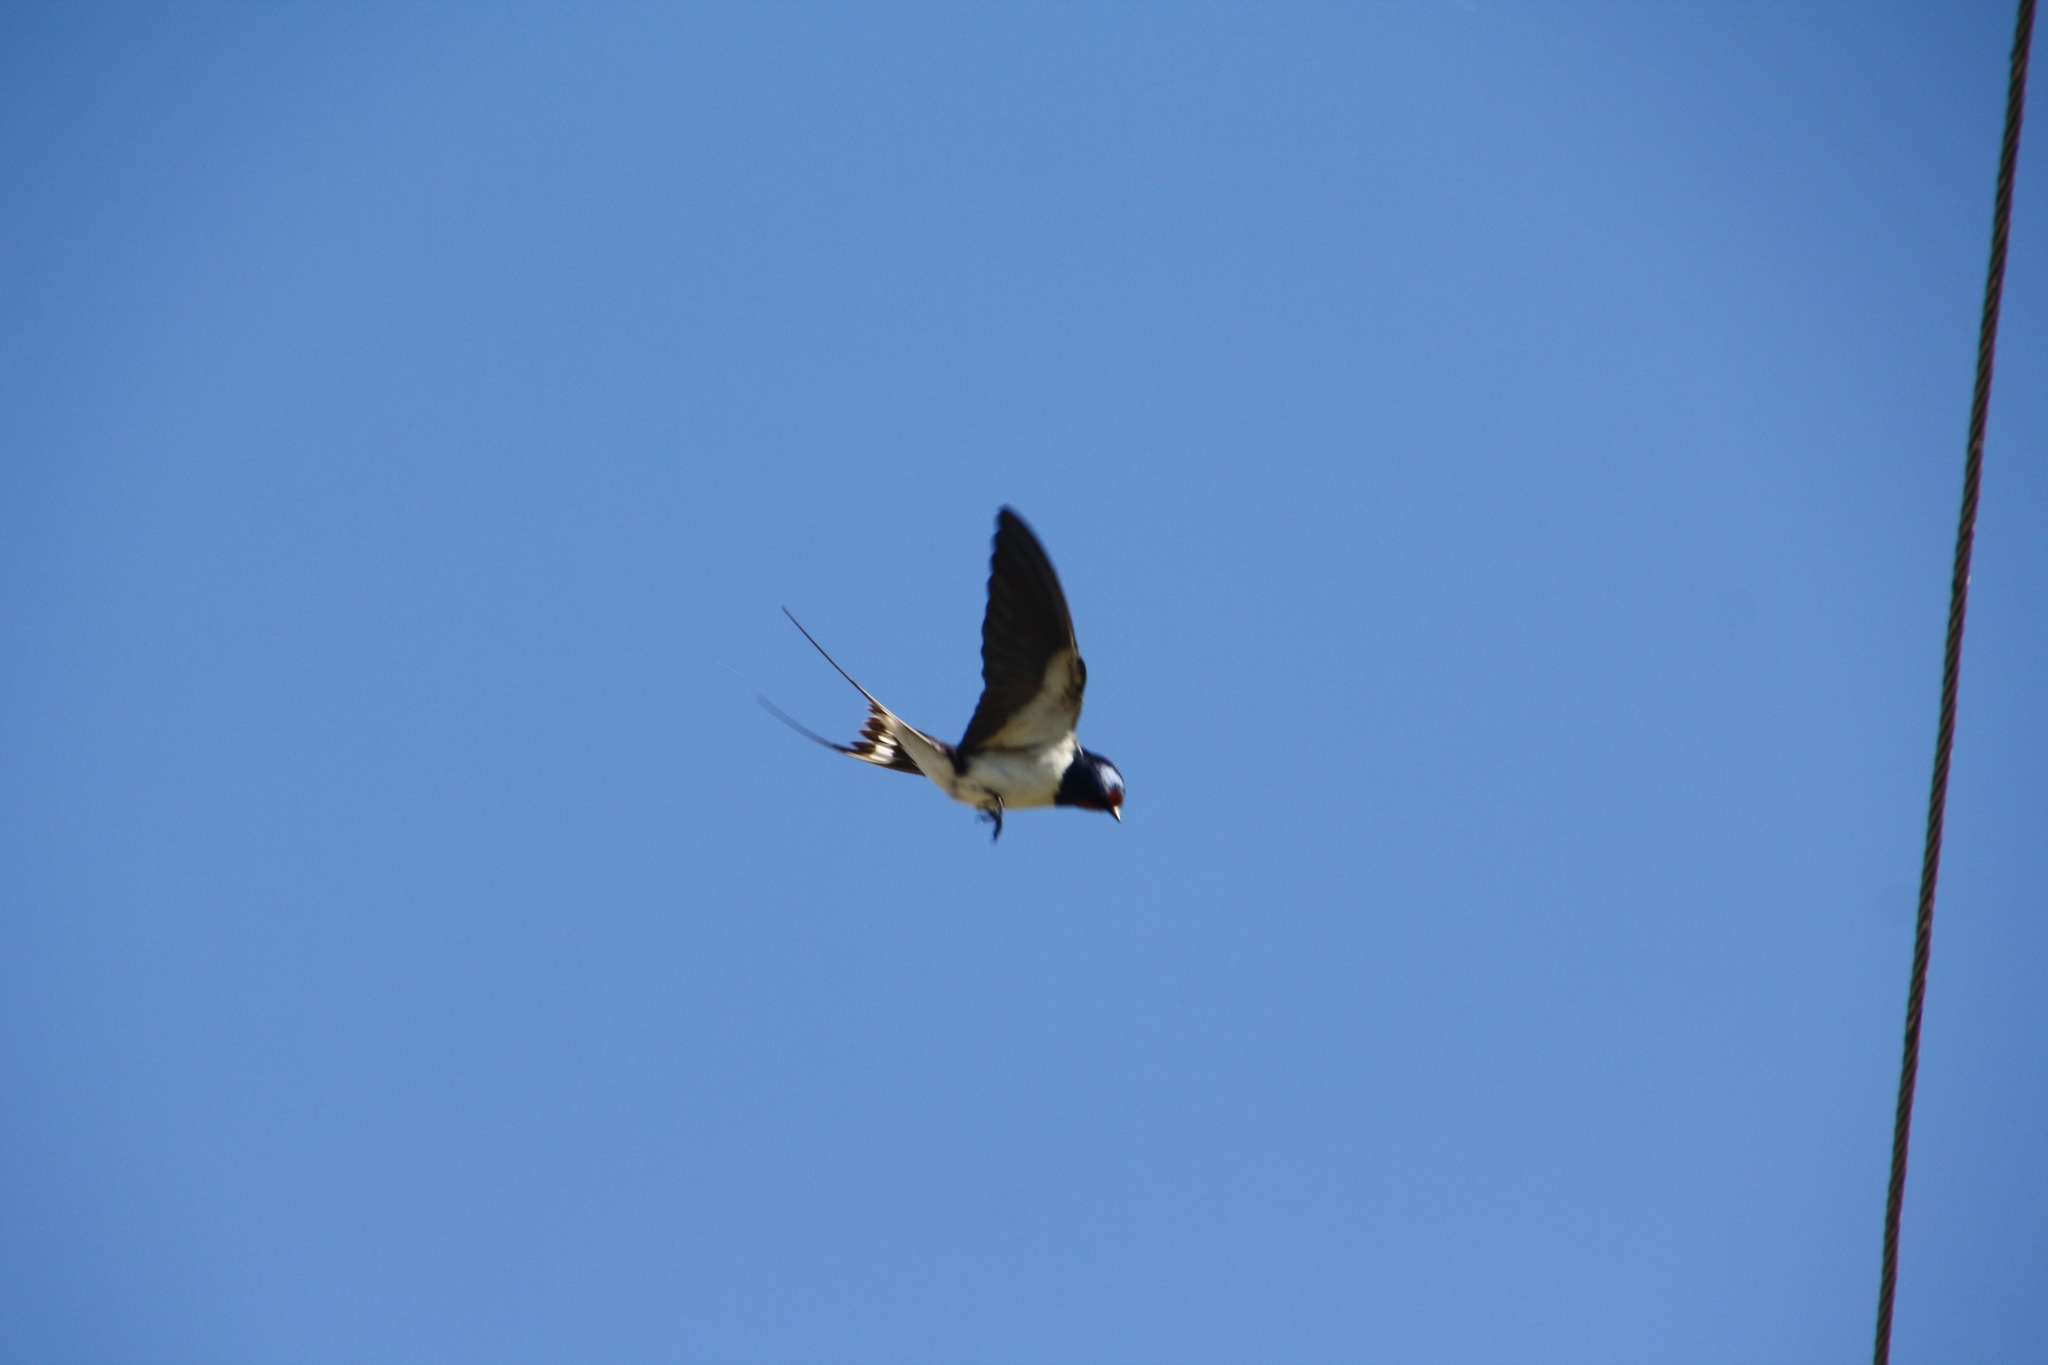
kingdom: Animalia
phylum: Chordata
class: Aves
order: Passeriformes
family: Hirundinidae
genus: Hirundo
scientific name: Hirundo rustica
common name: Barn swallow
